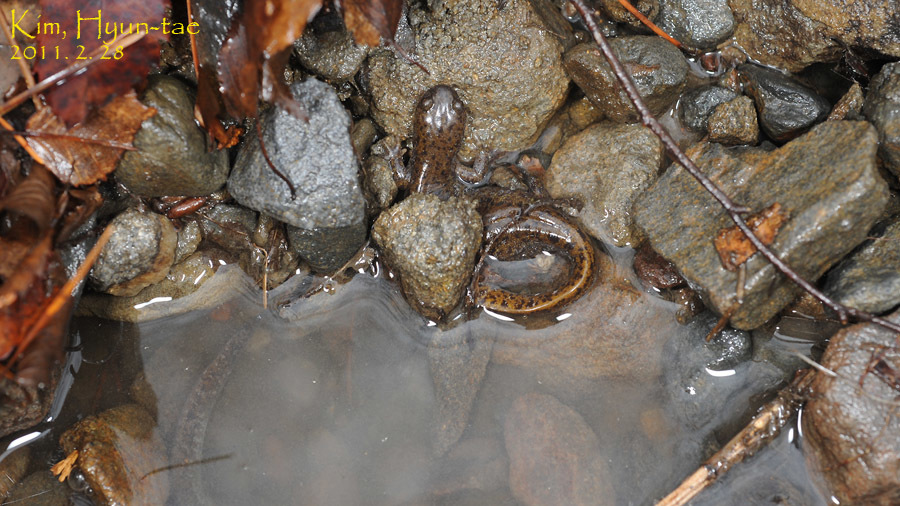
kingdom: Animalia
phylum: Chordata
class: Amphibia
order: Caudata
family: Hynobiidae
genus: Hynobius
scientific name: Hynobius leechii
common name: Gensan salamander
